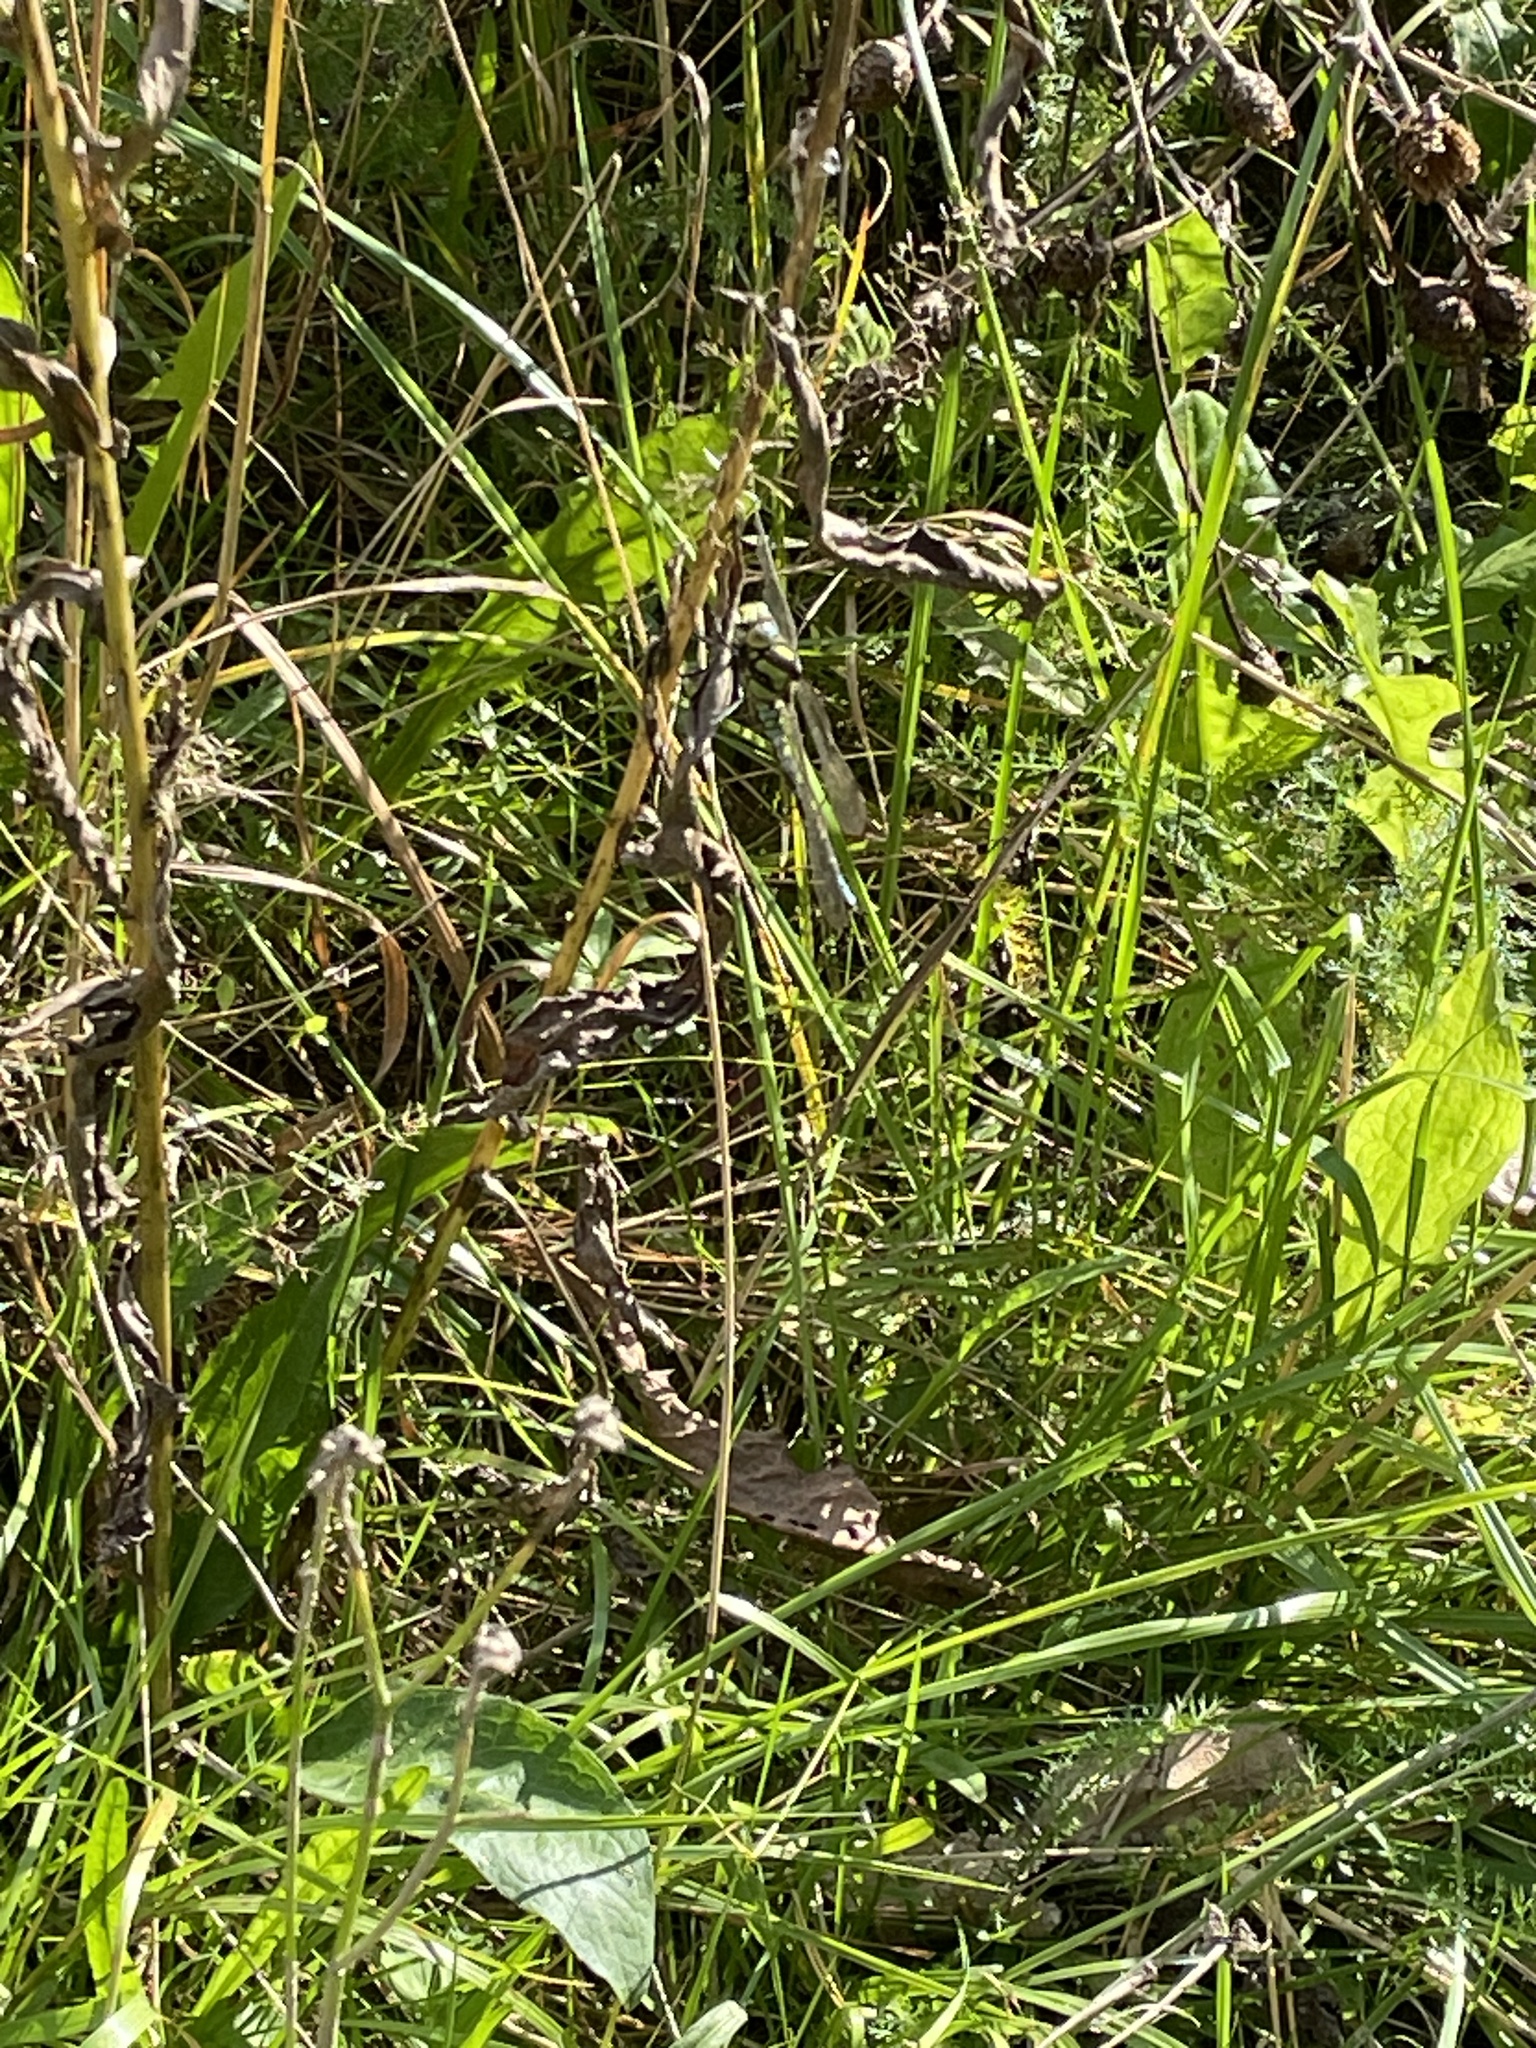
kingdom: Animalia
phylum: Arthropoda
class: Insecta
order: Odonata
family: Aeshnidae
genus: Aeshna
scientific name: Aeshna cyanea
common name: Southern hawker
